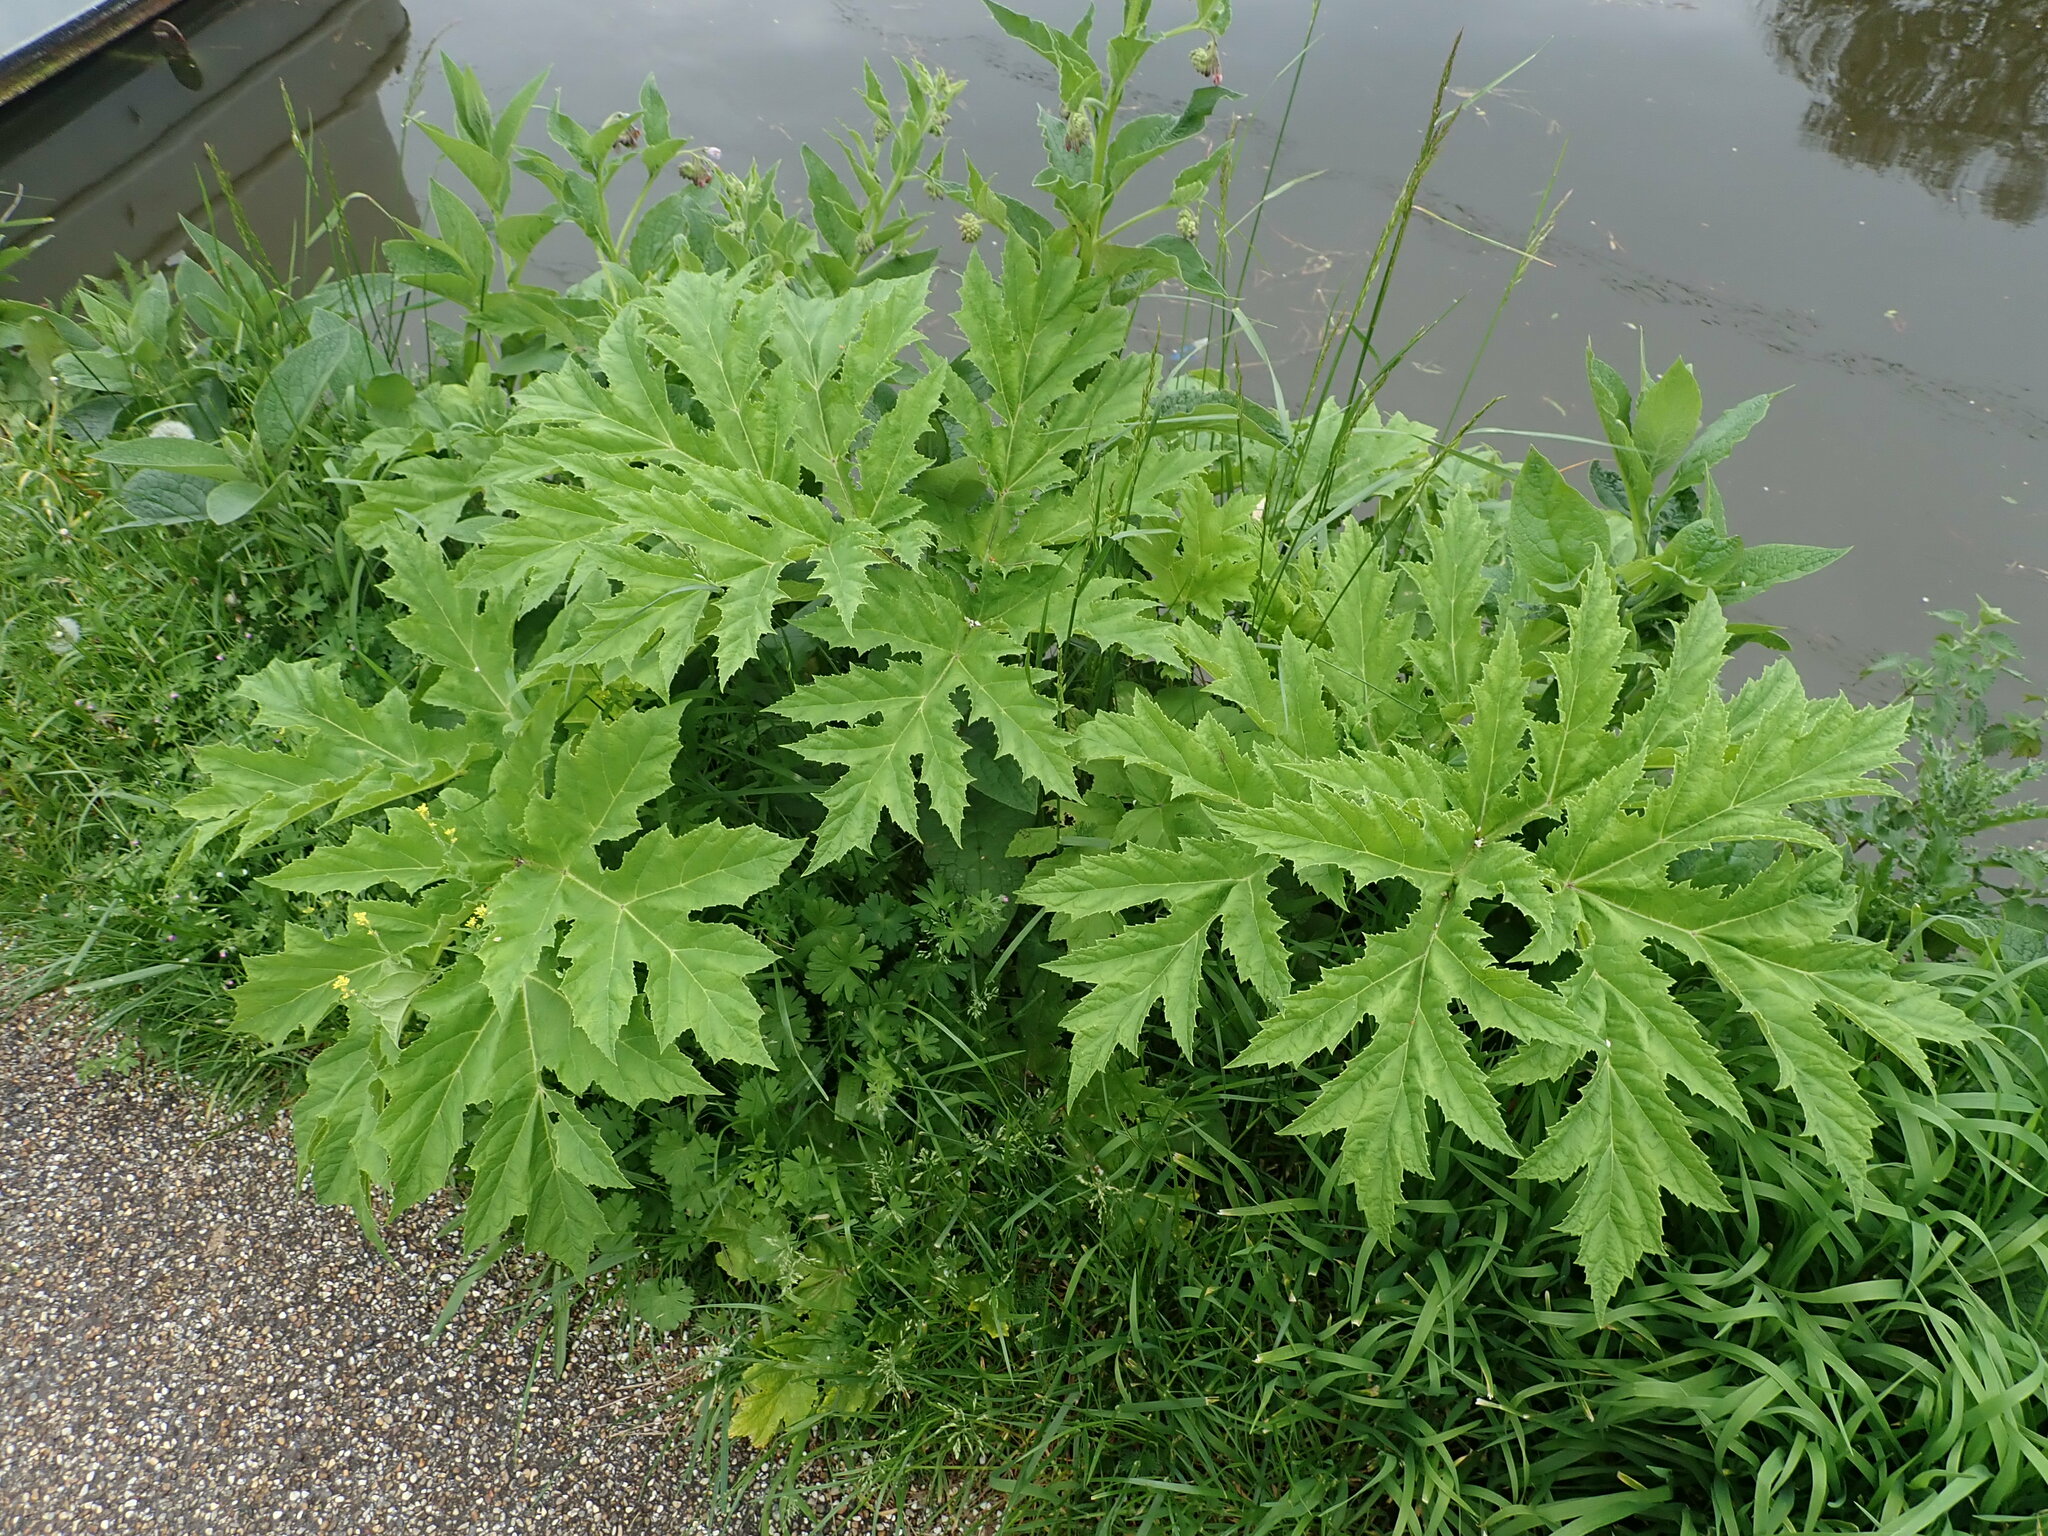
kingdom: Plantae
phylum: Tracheophyta
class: Magnoliopsida
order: Apiales
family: Apiaceae
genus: Heracleum
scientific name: Heracleum mantegazzianum
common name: Giant hogweed
